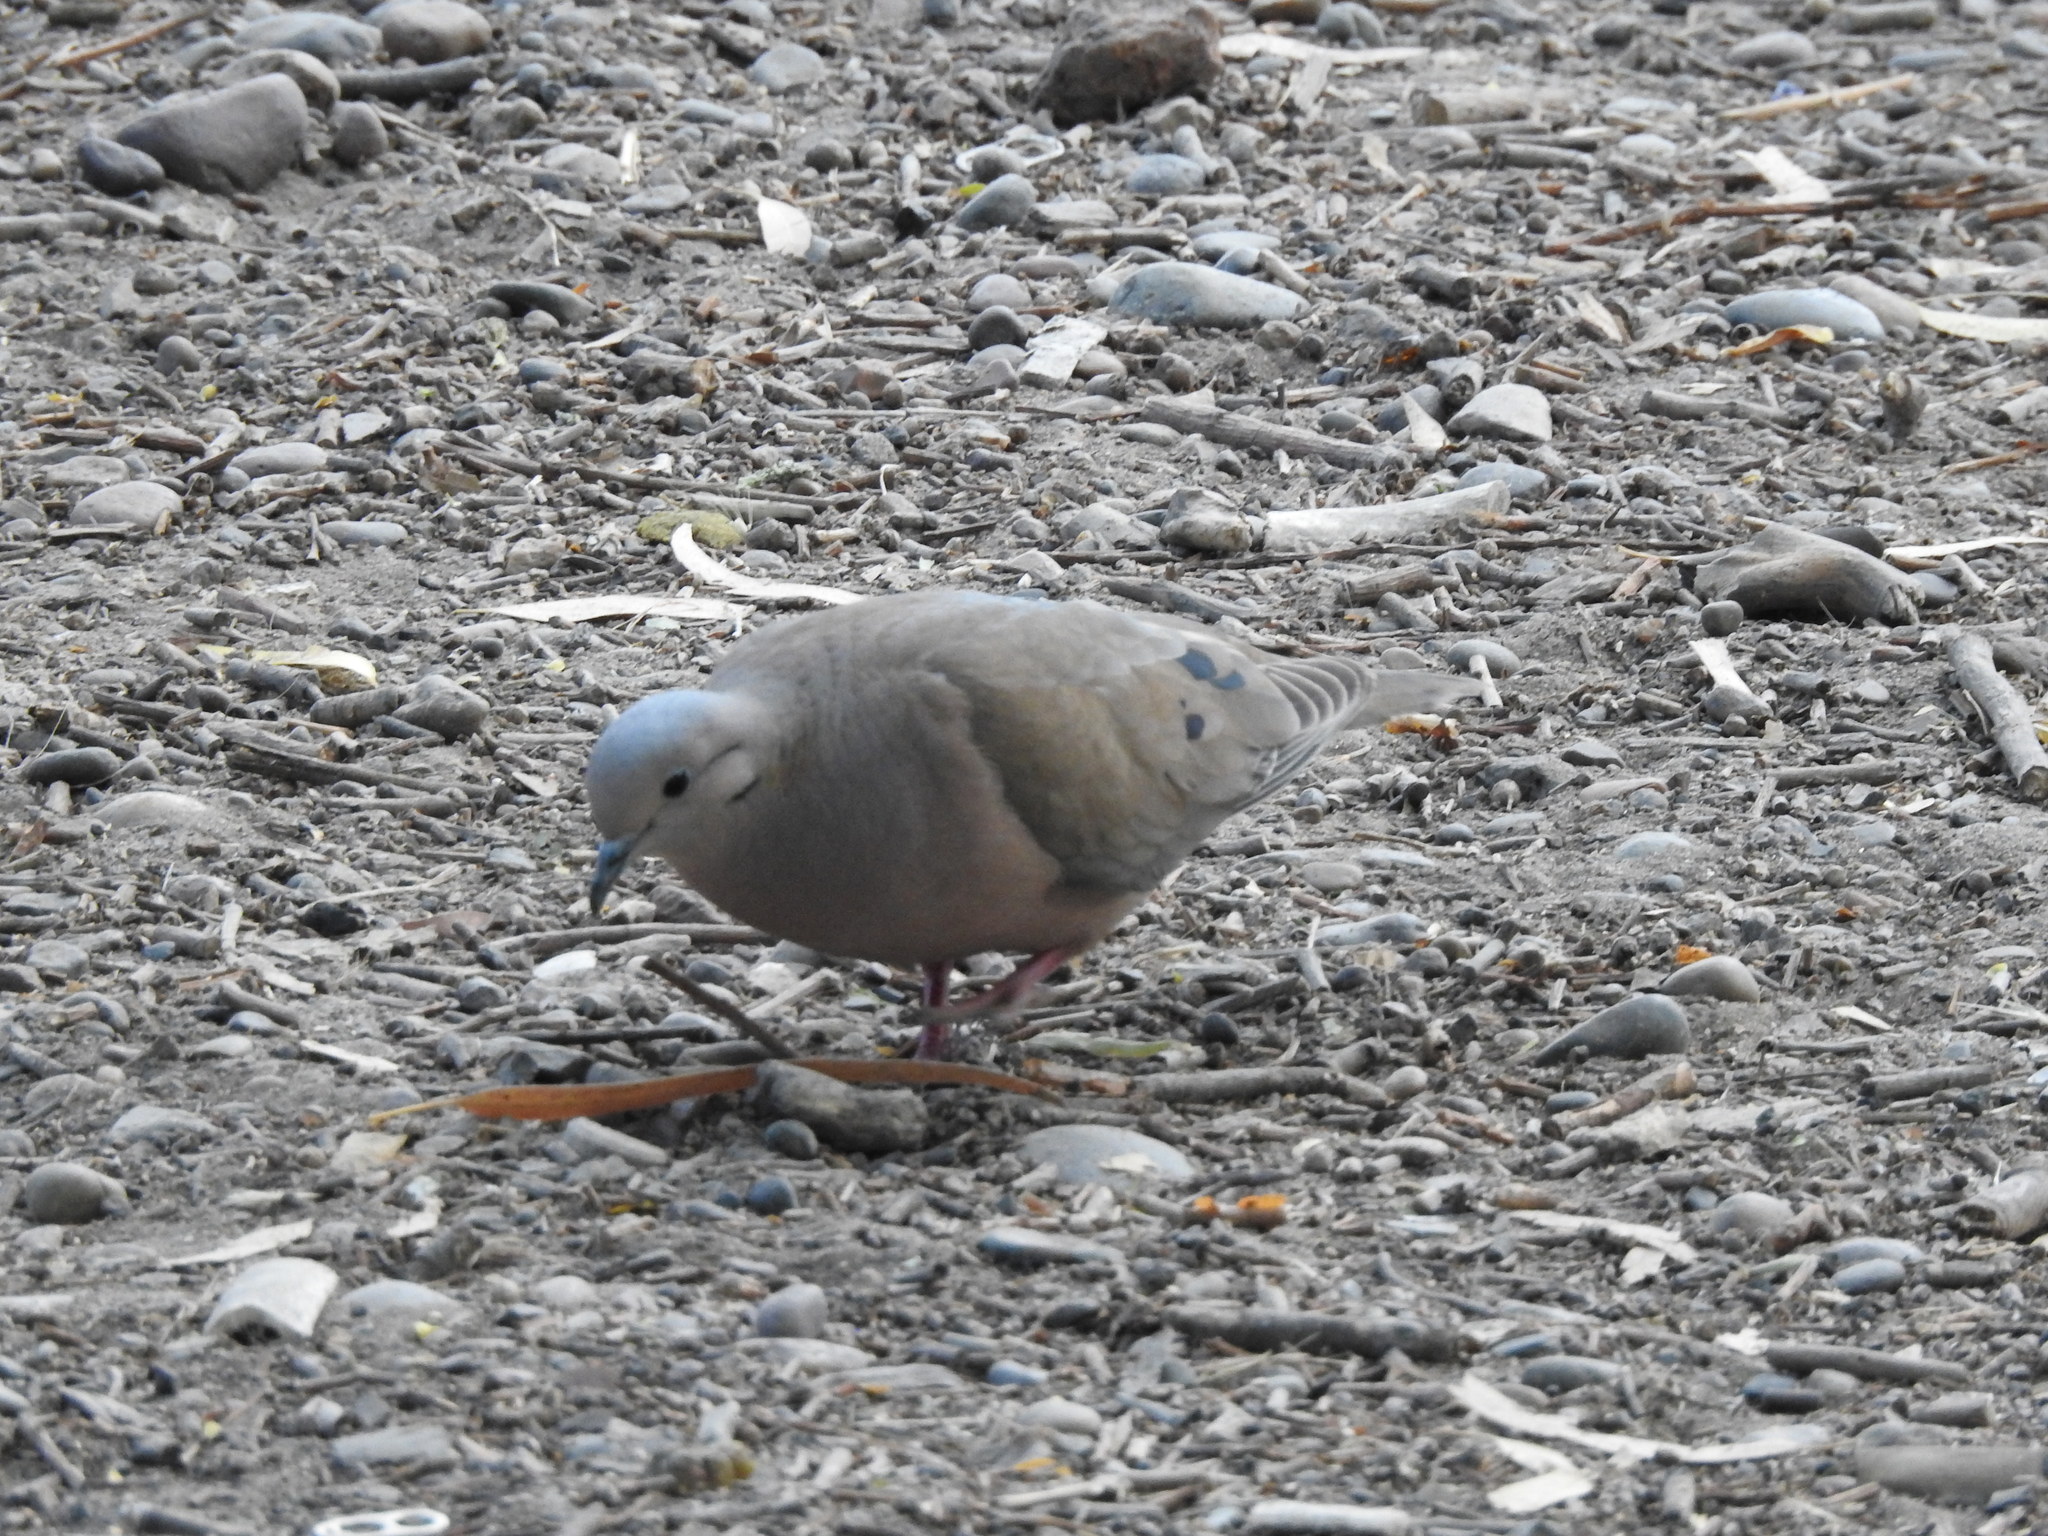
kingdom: Animalia
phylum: Chordata
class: Aves
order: Columbiformes
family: Columbidae
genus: Zenaida
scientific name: Zenaida auriculata
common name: Eared dove
